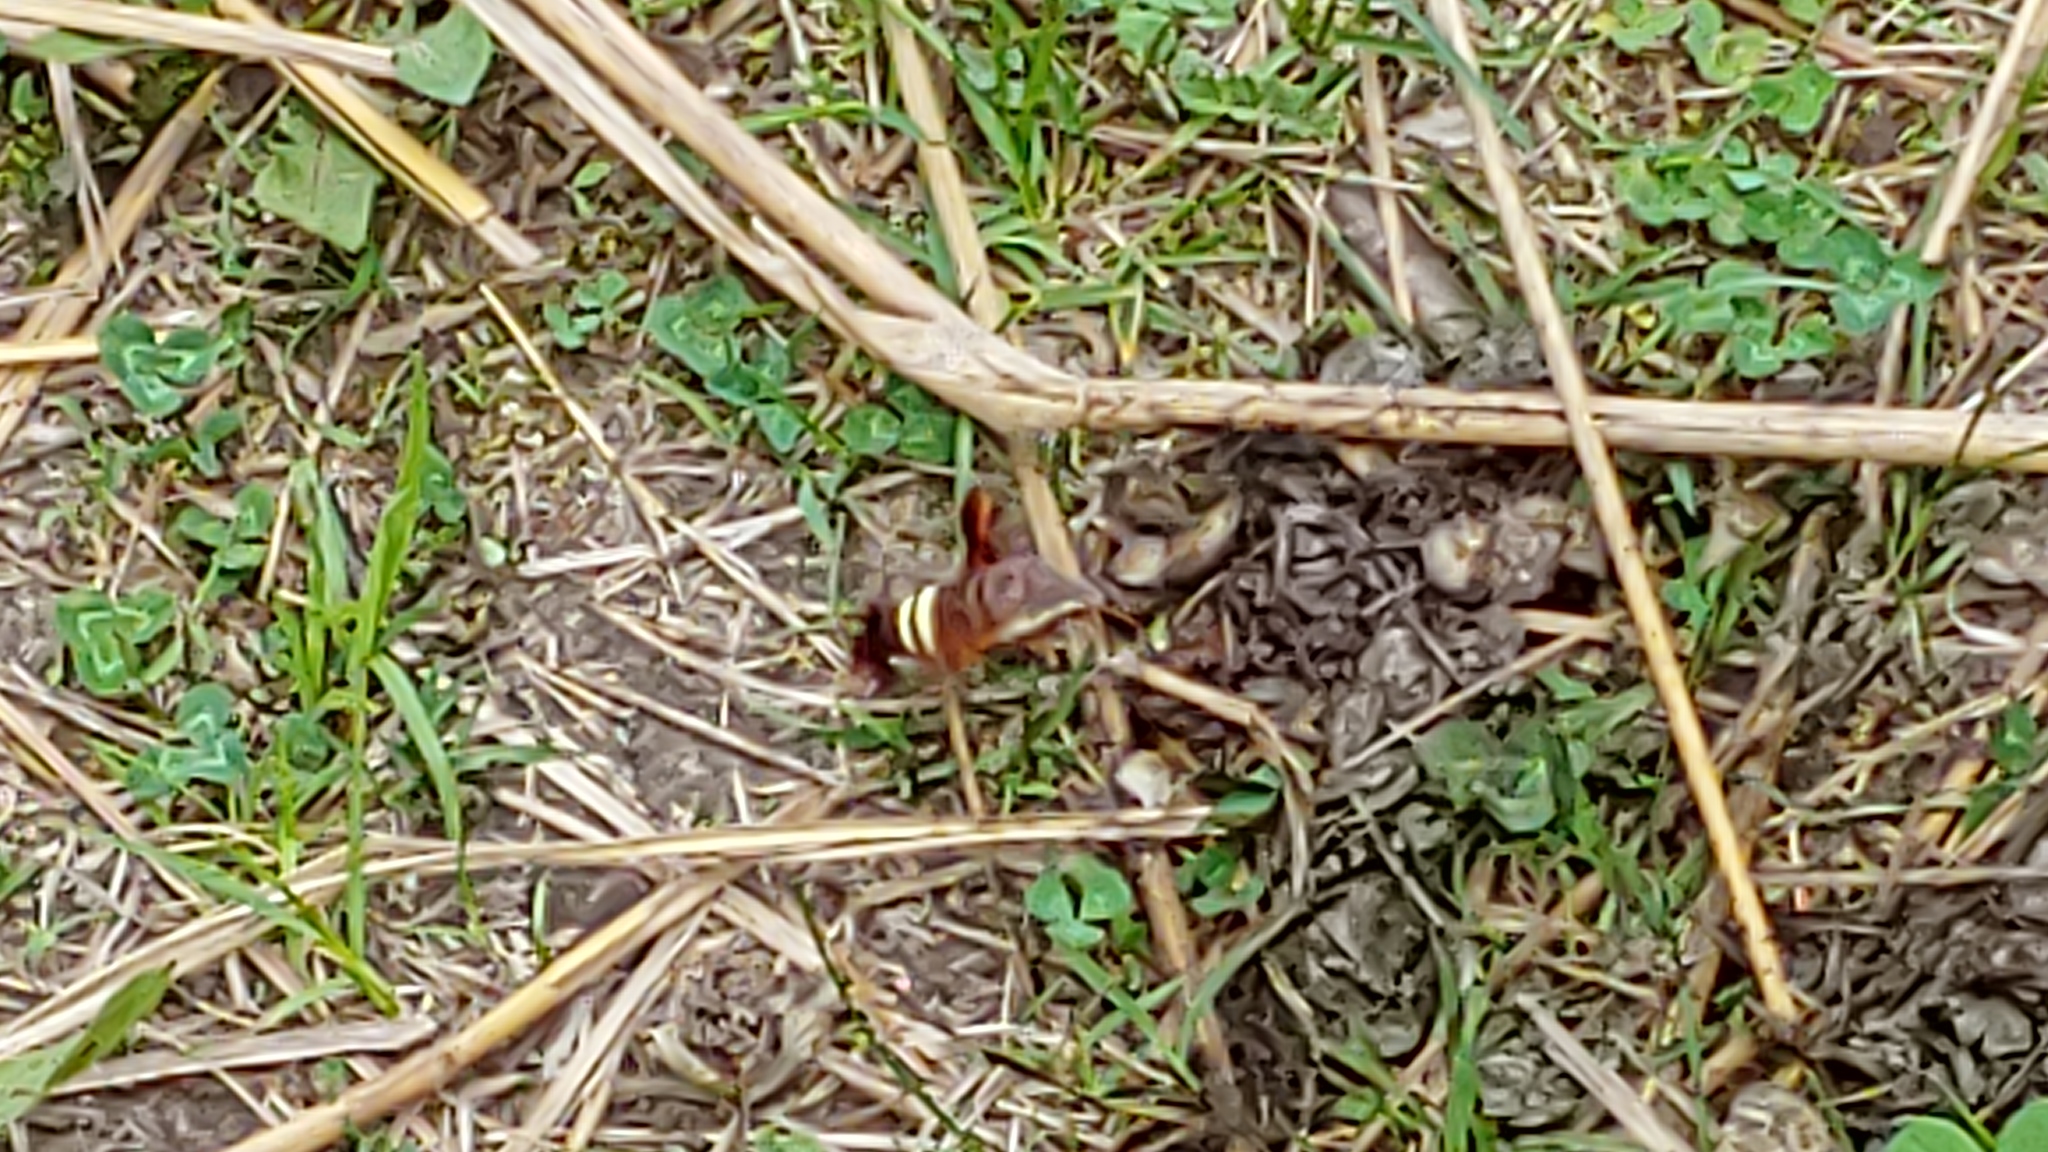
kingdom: Animalia
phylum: Arthropoda
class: Insecta
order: Lepidoptera
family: Sphingidae
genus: Amphion
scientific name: Amphion floridensis
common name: Nessus sphinx
